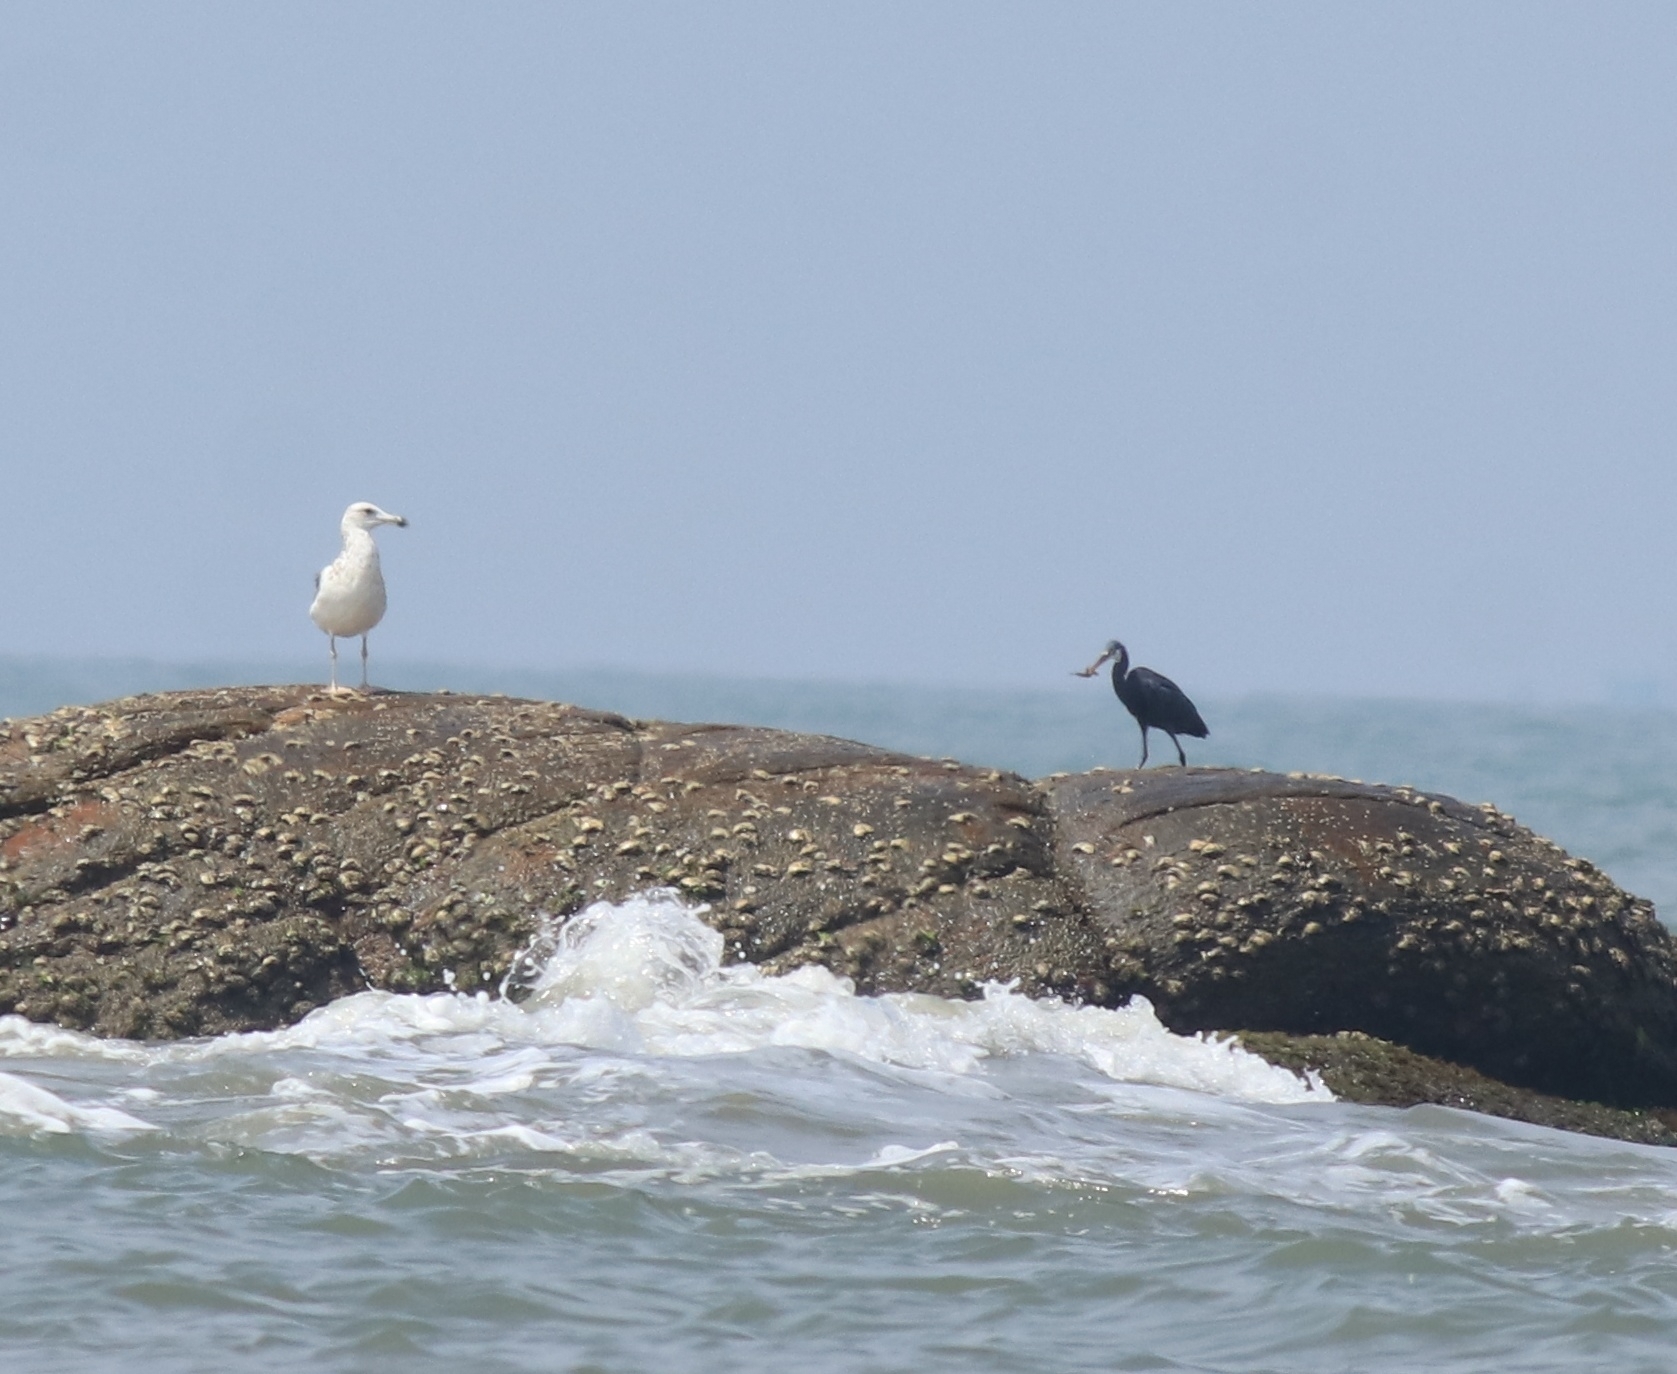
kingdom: Animalia
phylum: Chordata
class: Aves
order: Pelecaniformes
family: Ardeidae
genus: Egretta
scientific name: Egretta gularis
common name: Western reef-heron
